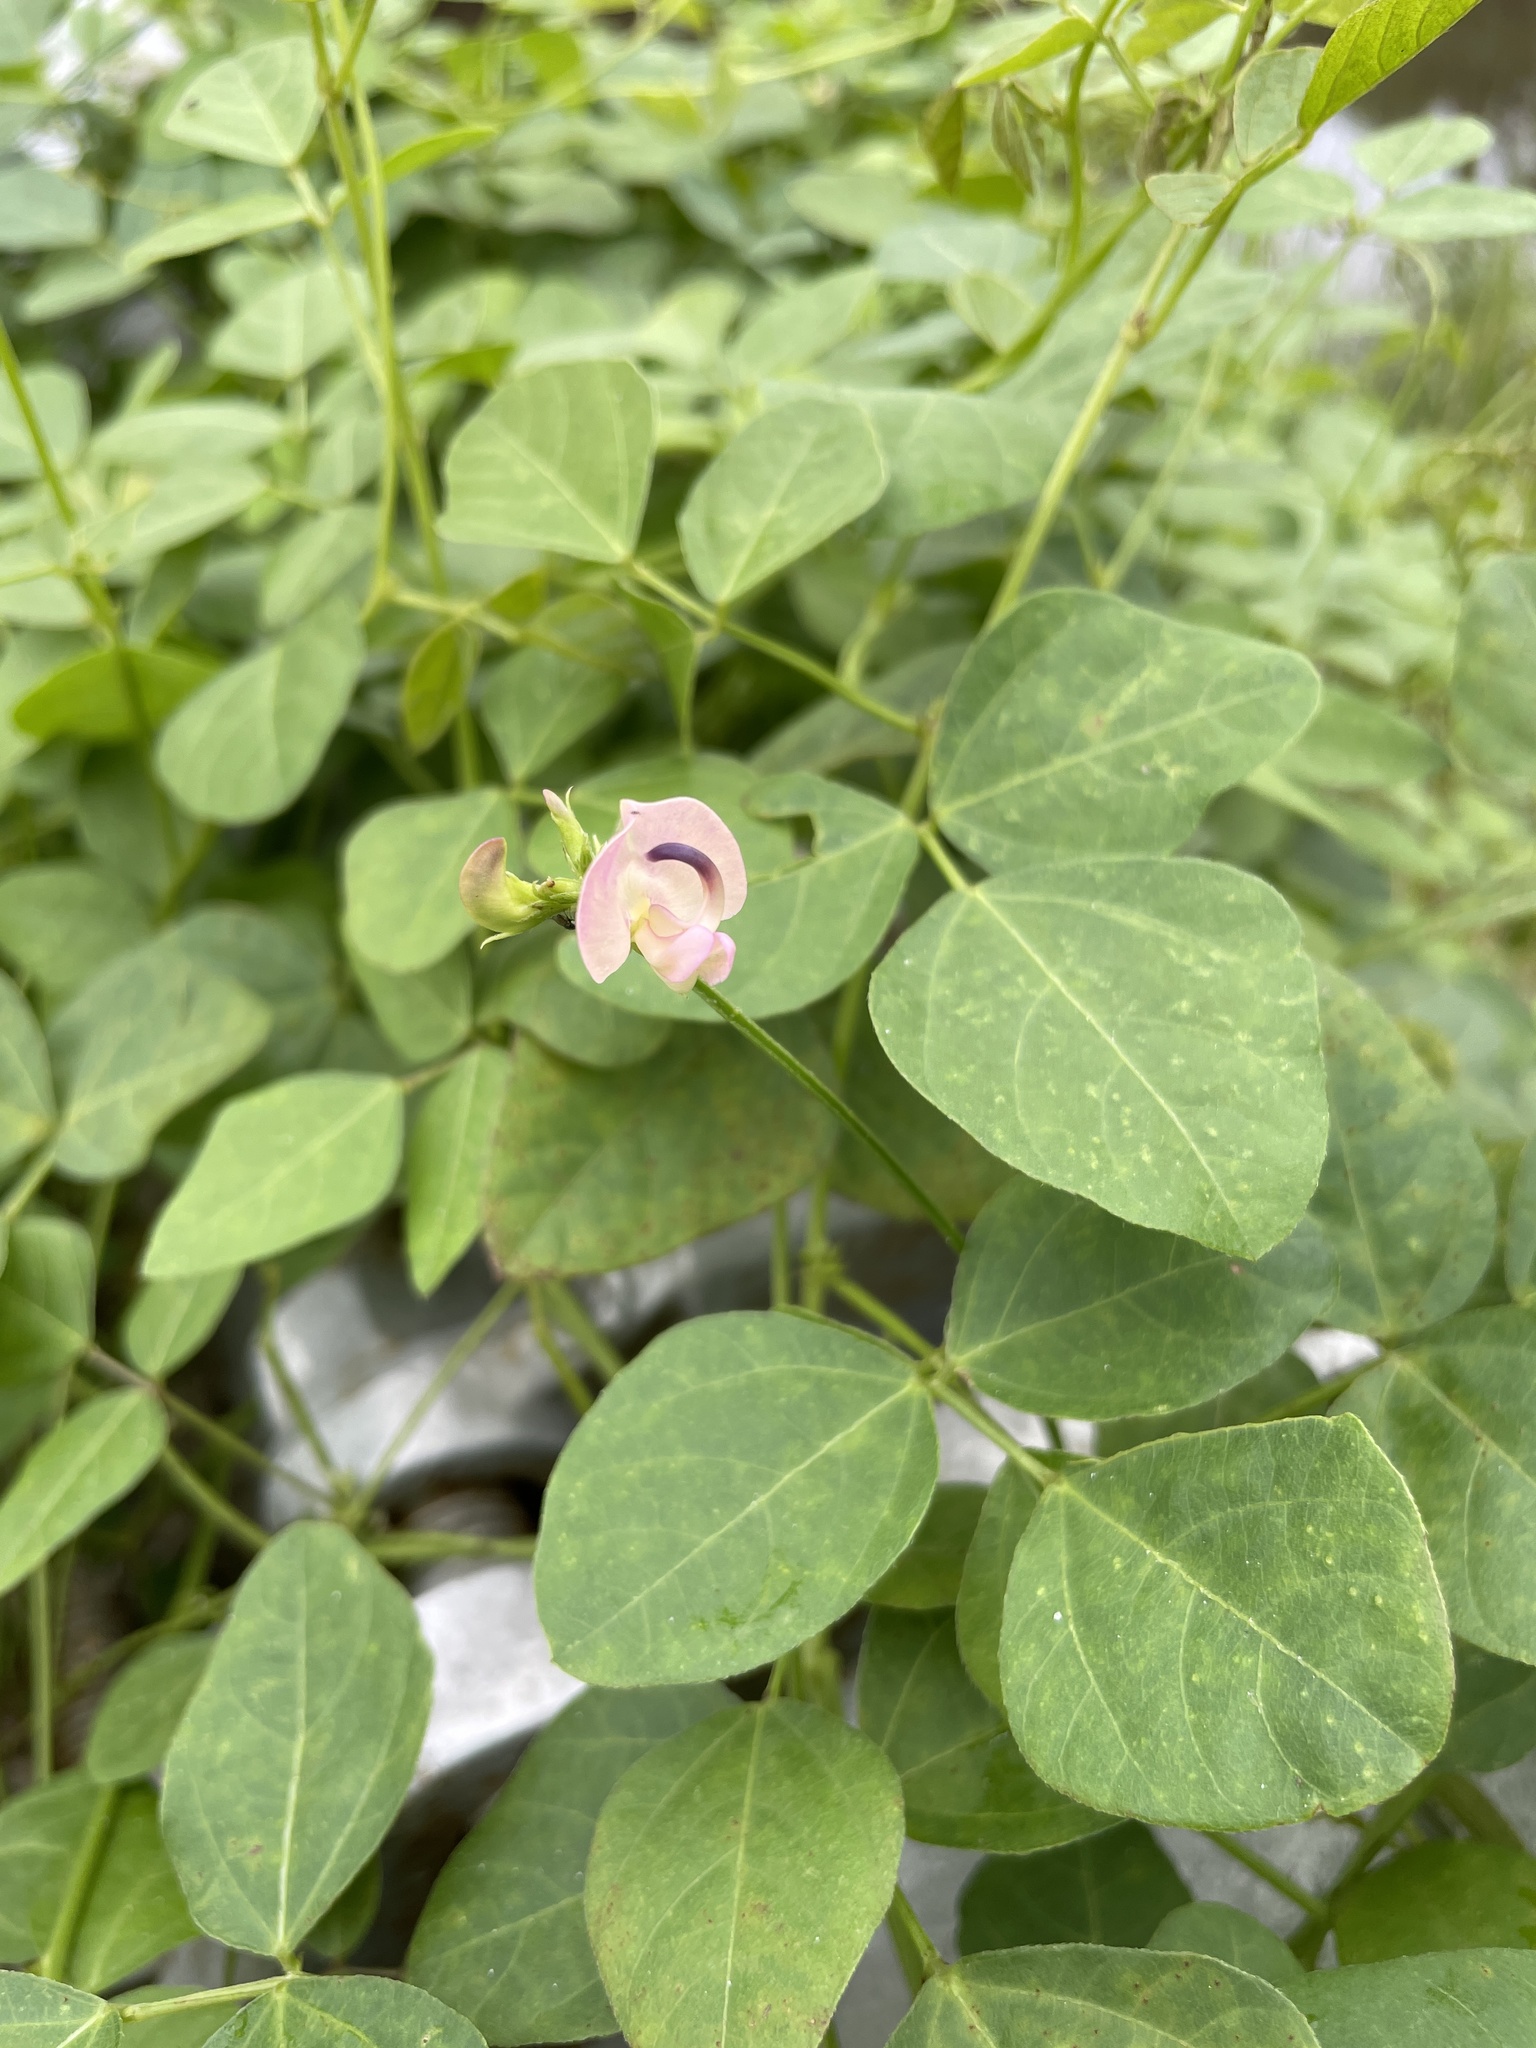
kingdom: Plantae
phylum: Tracheophyta
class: Magnoliopsida
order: Fabales
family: Fabaceae
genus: Strophostyles
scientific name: Strophostyles helvola
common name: Trailing wild bean
